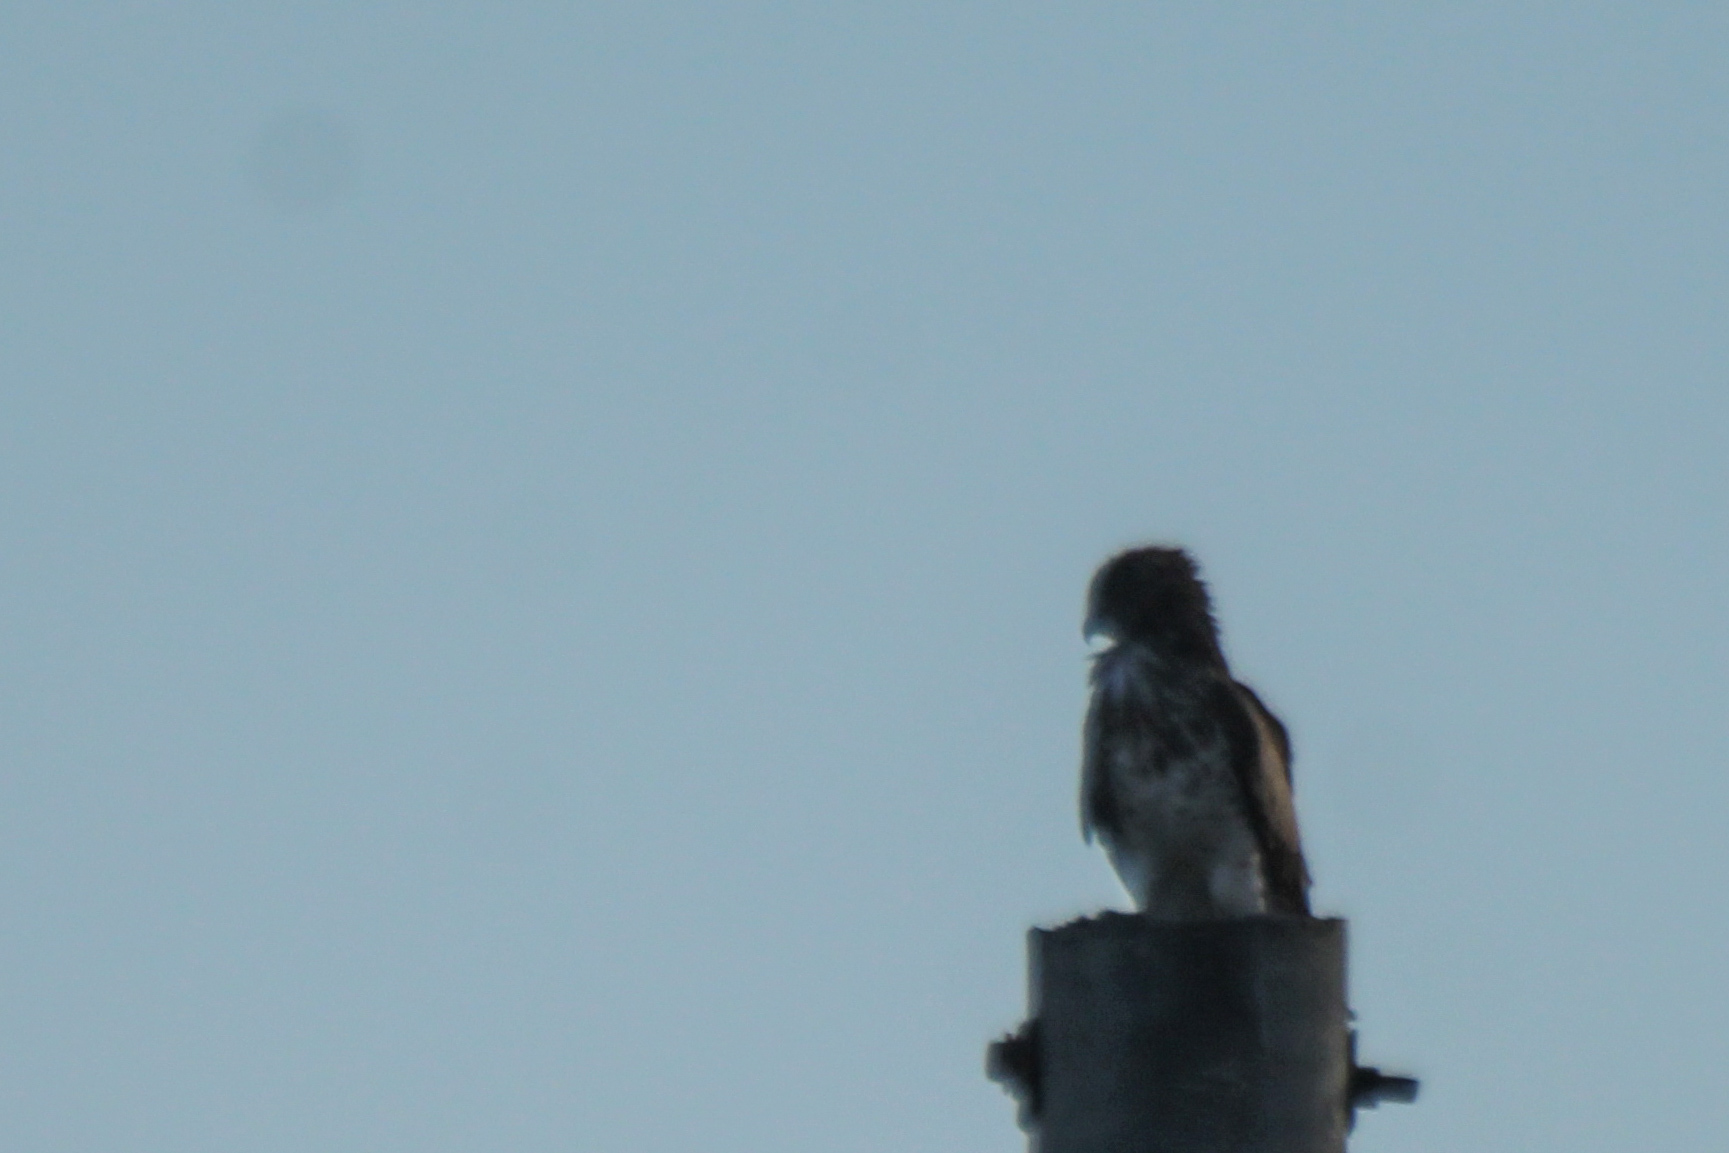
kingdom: Animalia
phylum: Chordata
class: Aves
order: Accipitriformes
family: Accipitridae
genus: Circaetus
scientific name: Circaetus gallicus
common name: Short-toed snake eagle
